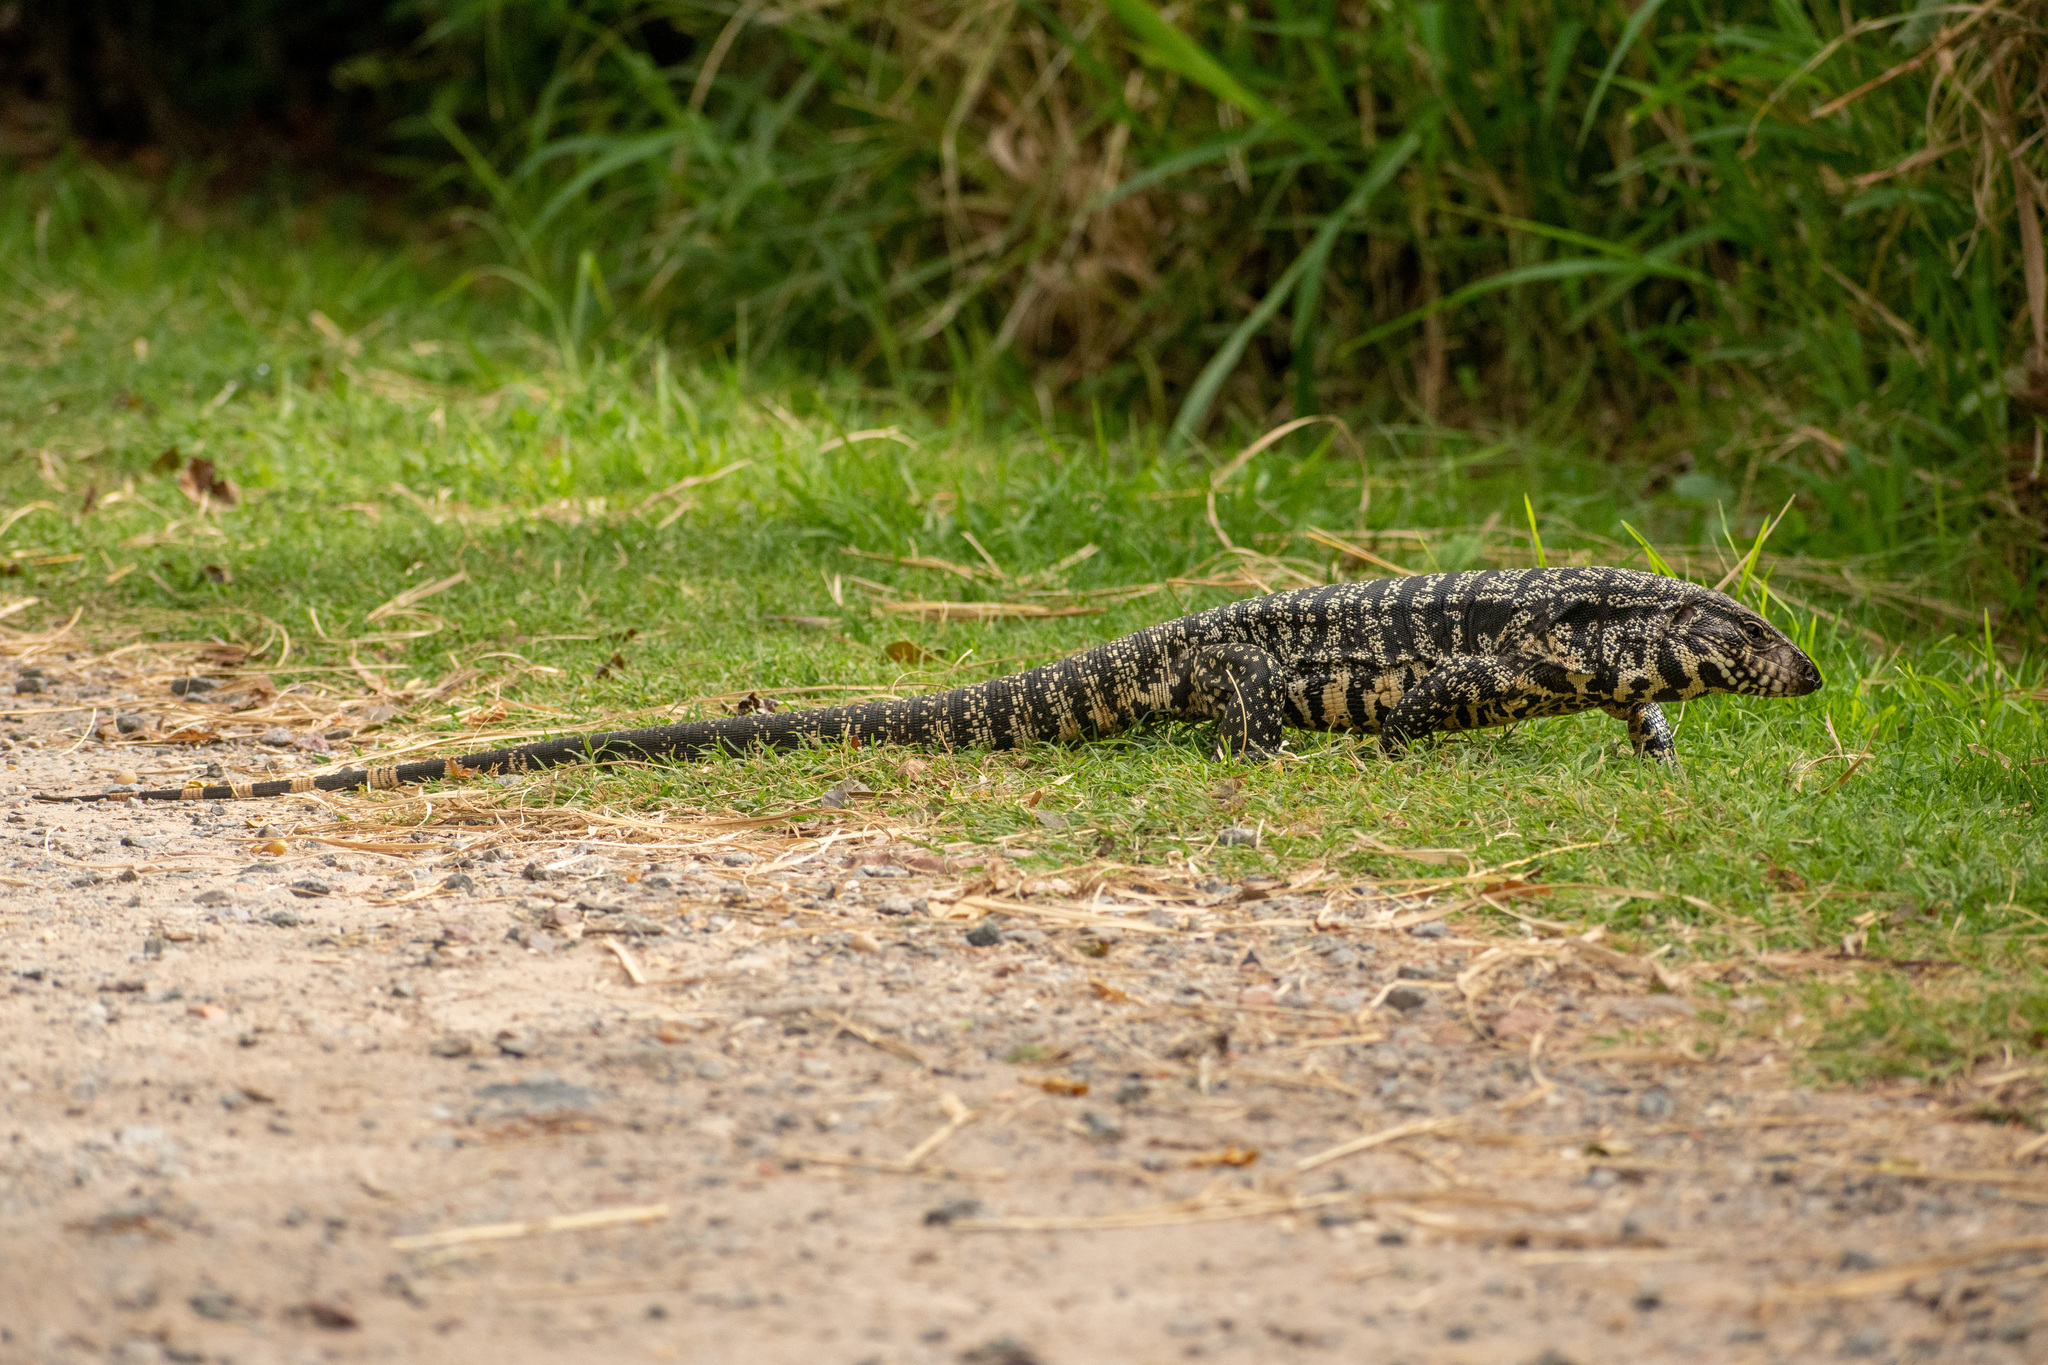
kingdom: Animalia
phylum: Chordata
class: Squamata
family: Teiidae
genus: Salvator
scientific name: Salvator merianae
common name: Argentine black and white tegu
